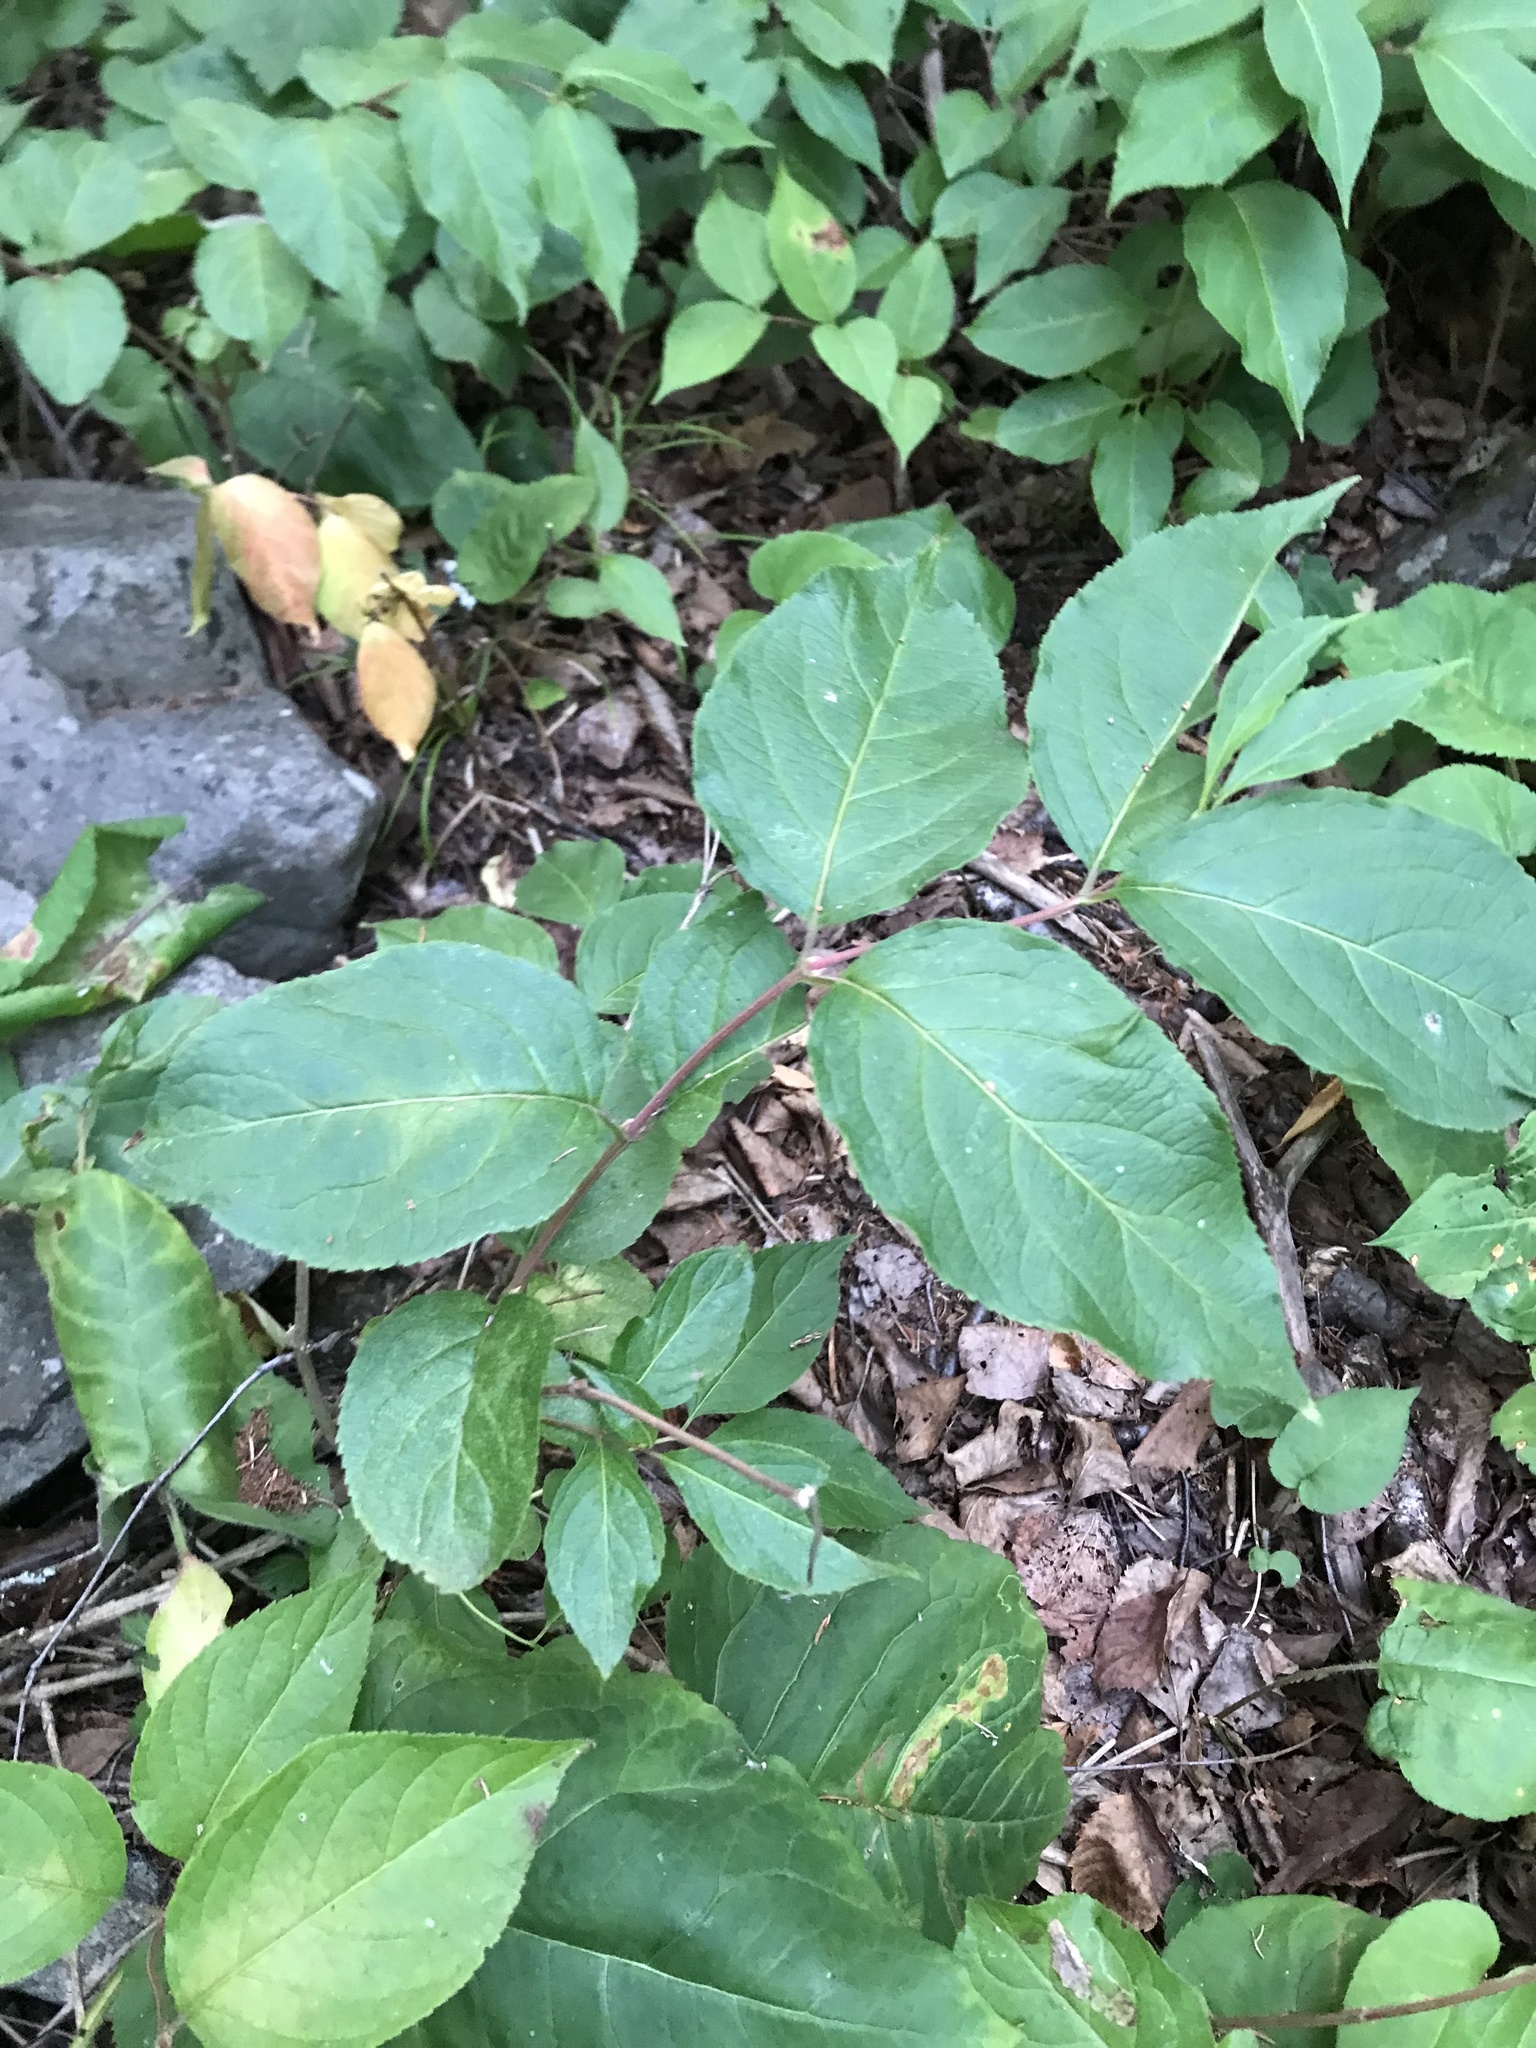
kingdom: Plantae
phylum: Tracheophyta
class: Magnoliopsida
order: Dipsacales
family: Caprifoliaceae
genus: Diervilla
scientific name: Diervilla lonicera
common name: Bush-honeysuckle
